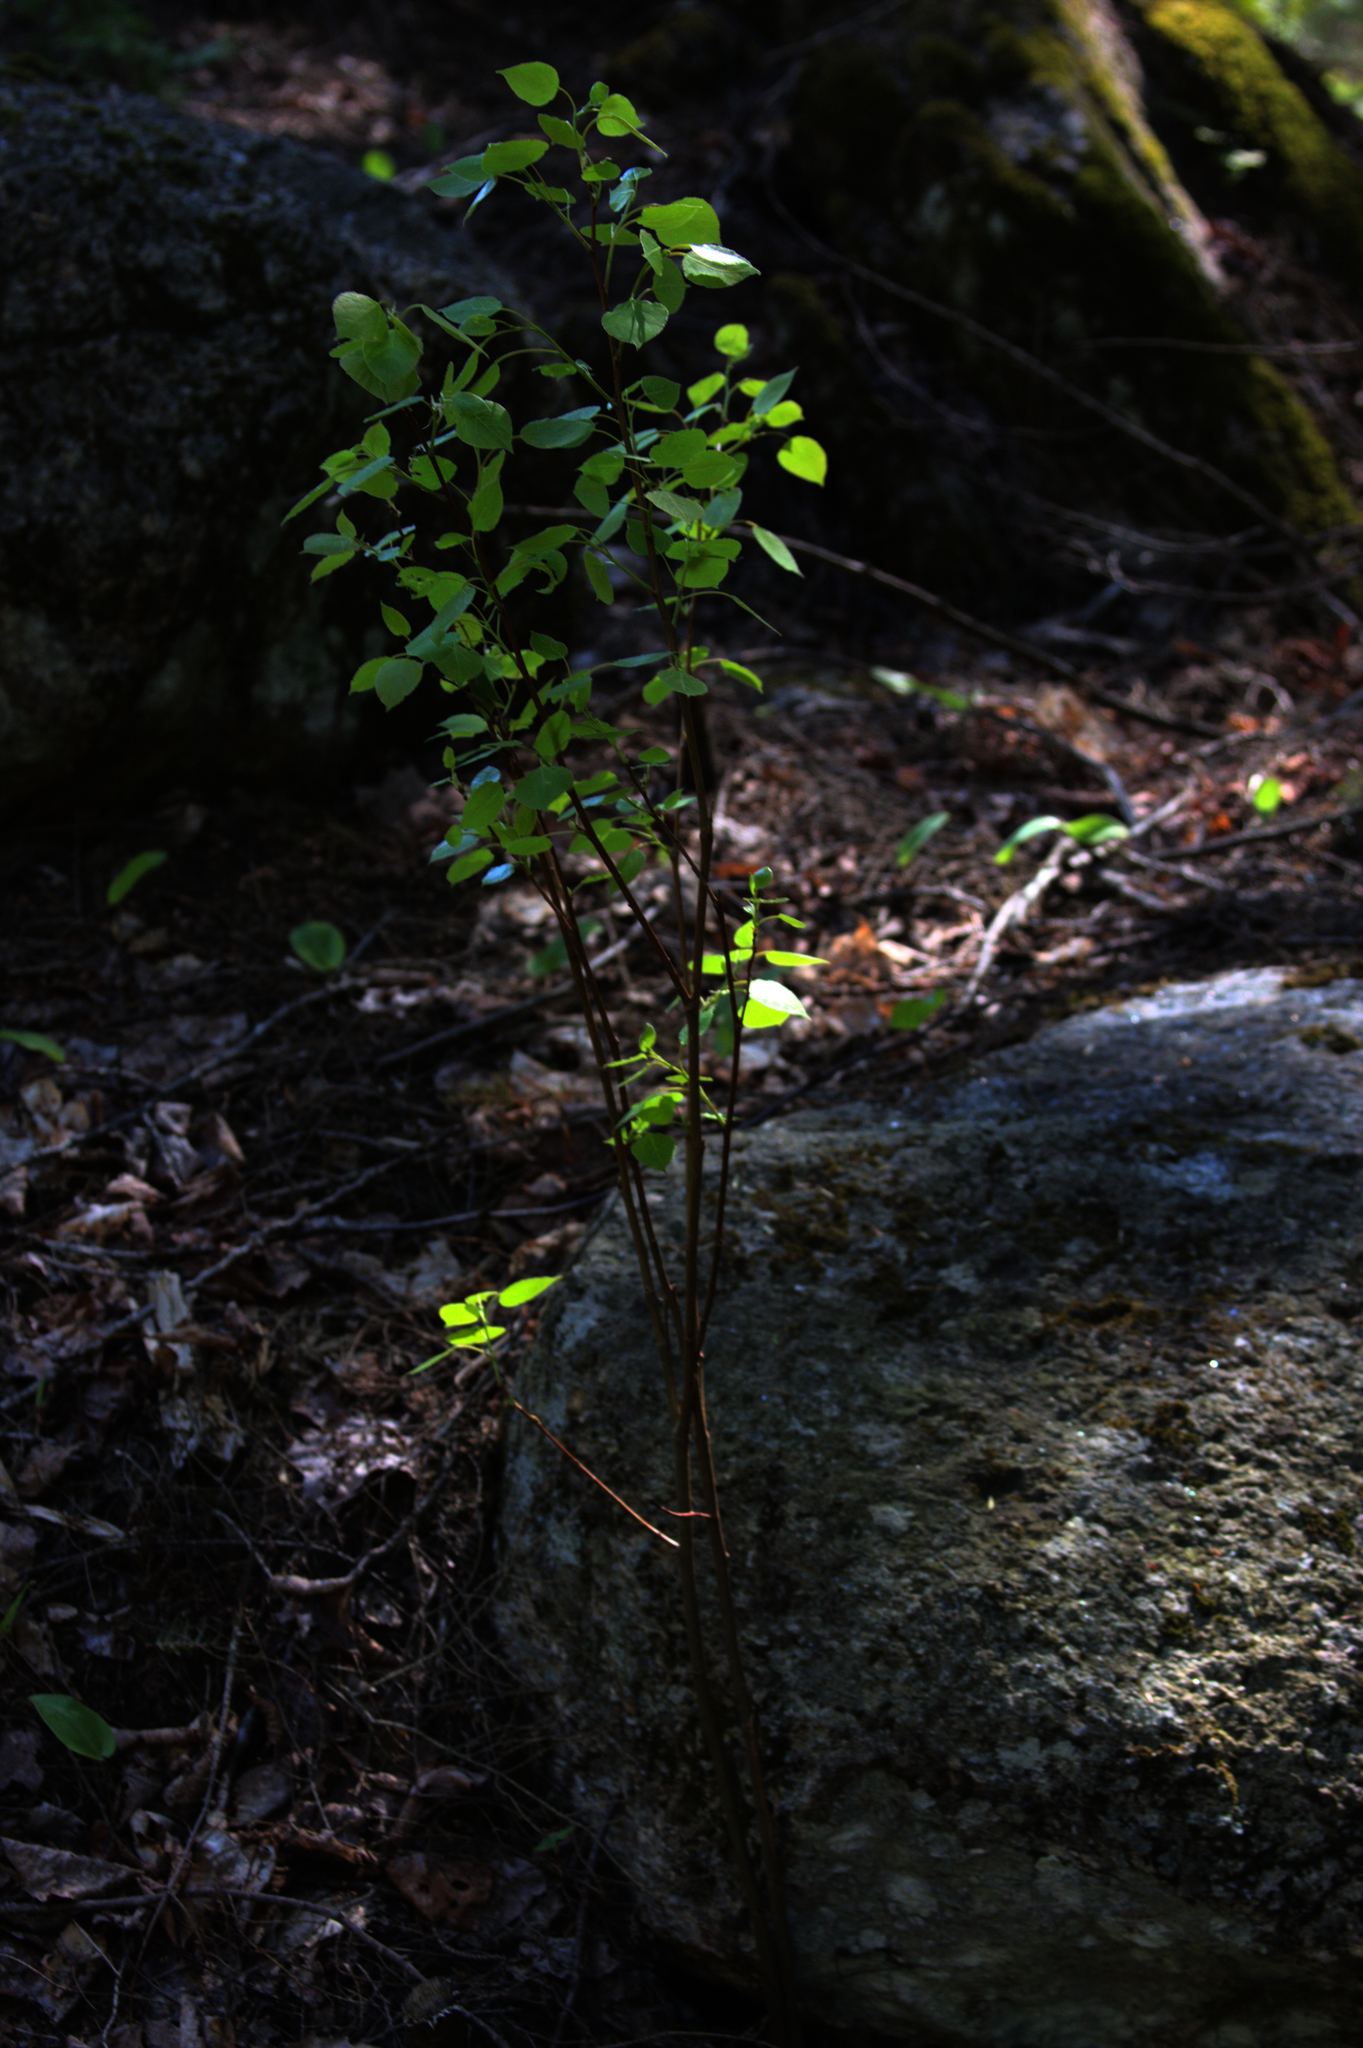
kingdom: Plantae
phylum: Tracheophyta
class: Magnoliopsida
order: Malpighiales
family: Salicaceae
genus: Populus
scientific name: Populus tremuloides
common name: Quaking aspen
